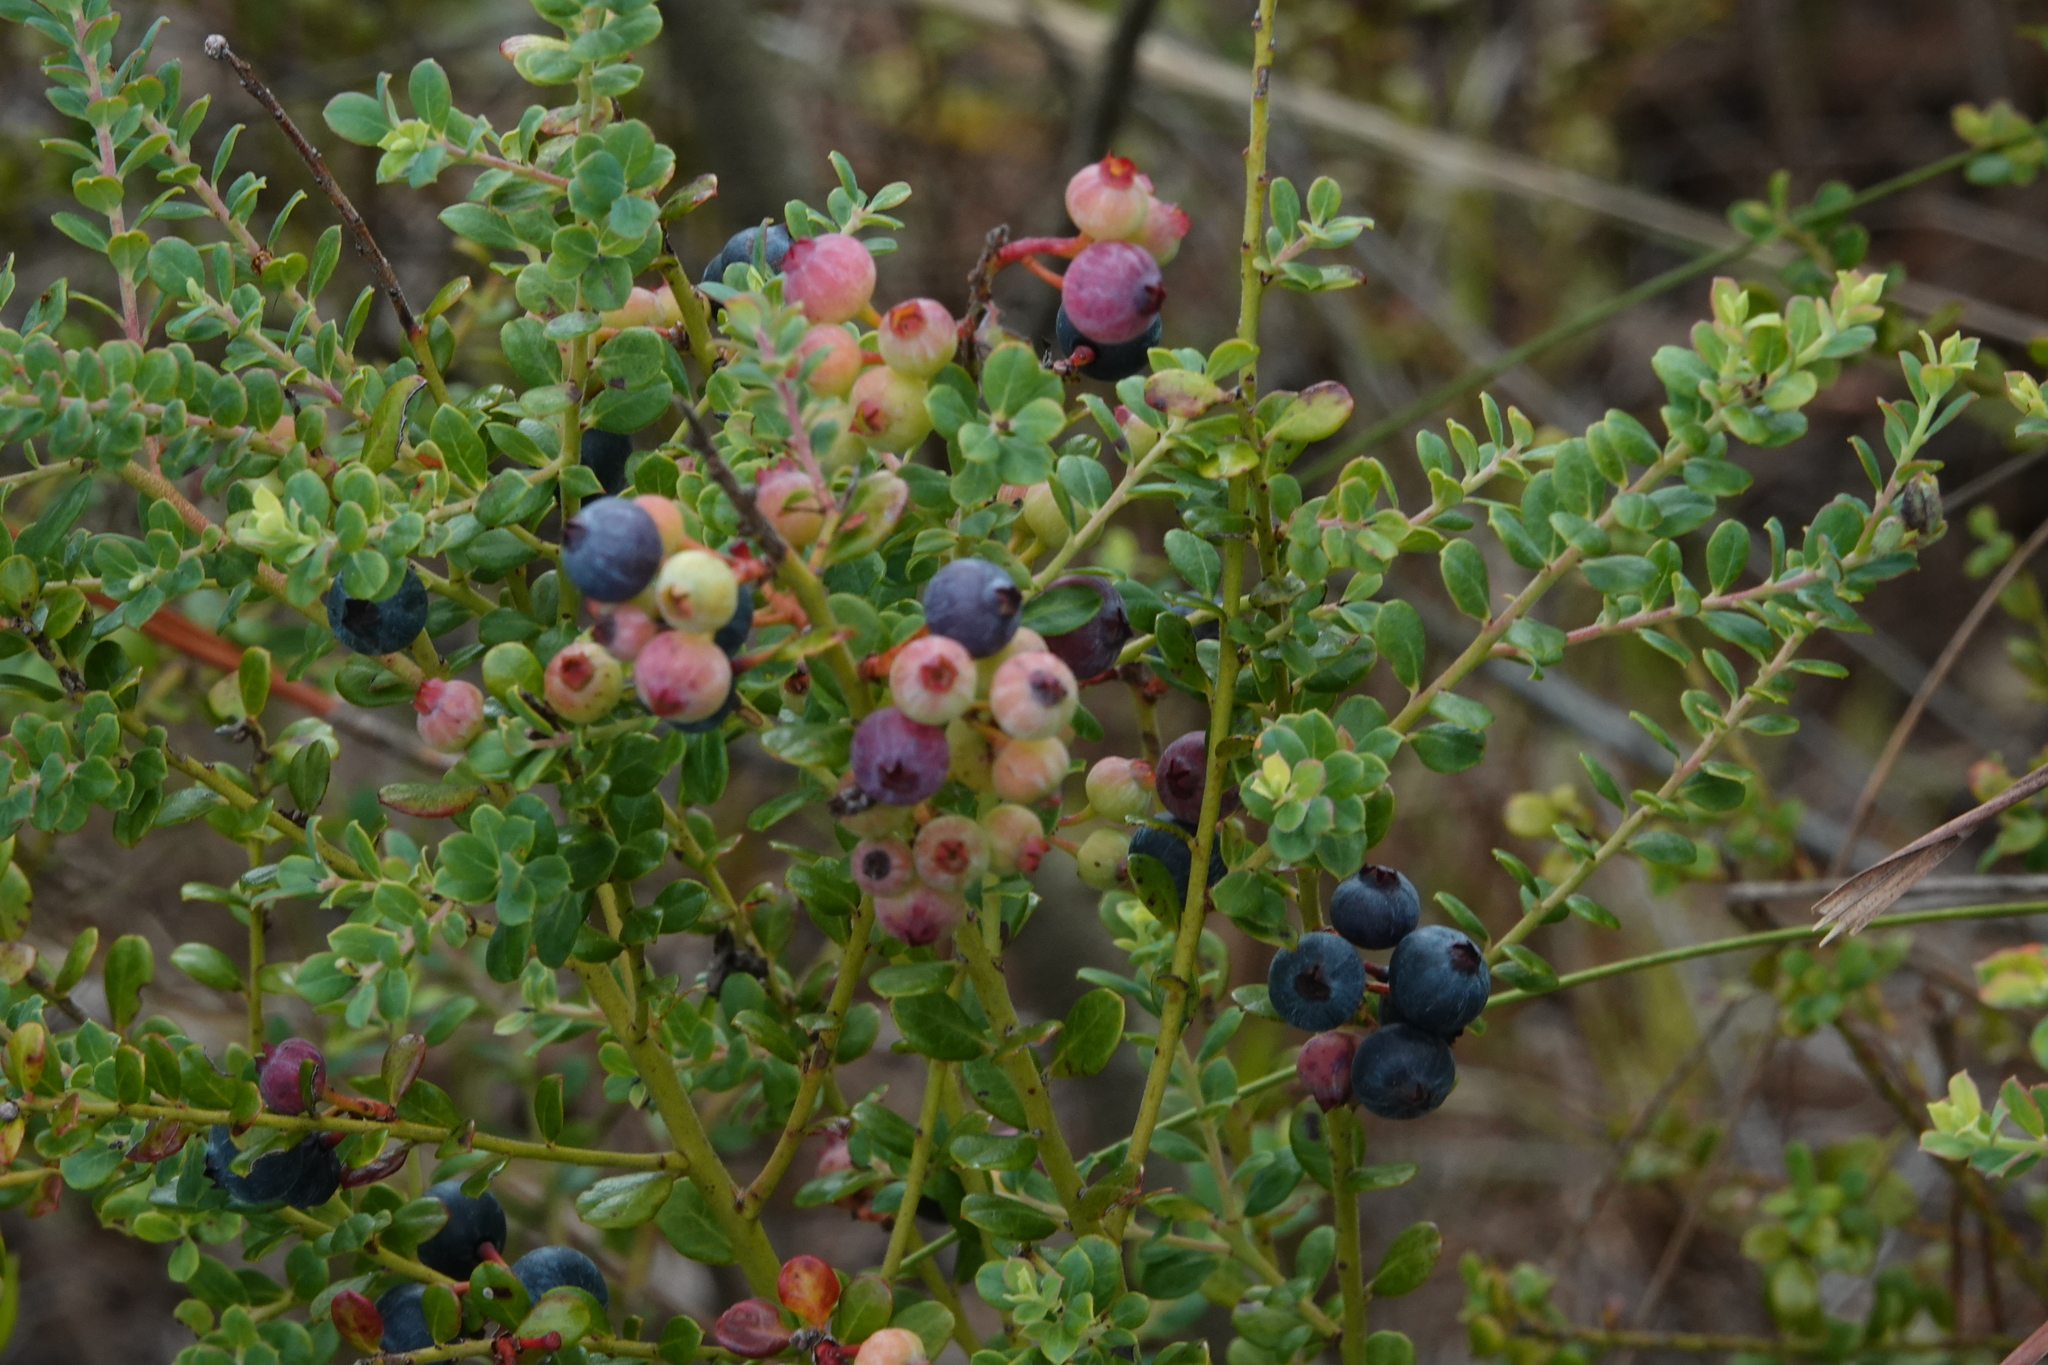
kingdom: Plantae
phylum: Tracheophyta
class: Magnoliopsida
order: Ericales
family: Ericaceae
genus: Vaccinium
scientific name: Vaccinium darrowii
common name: Darrow's blueberry
